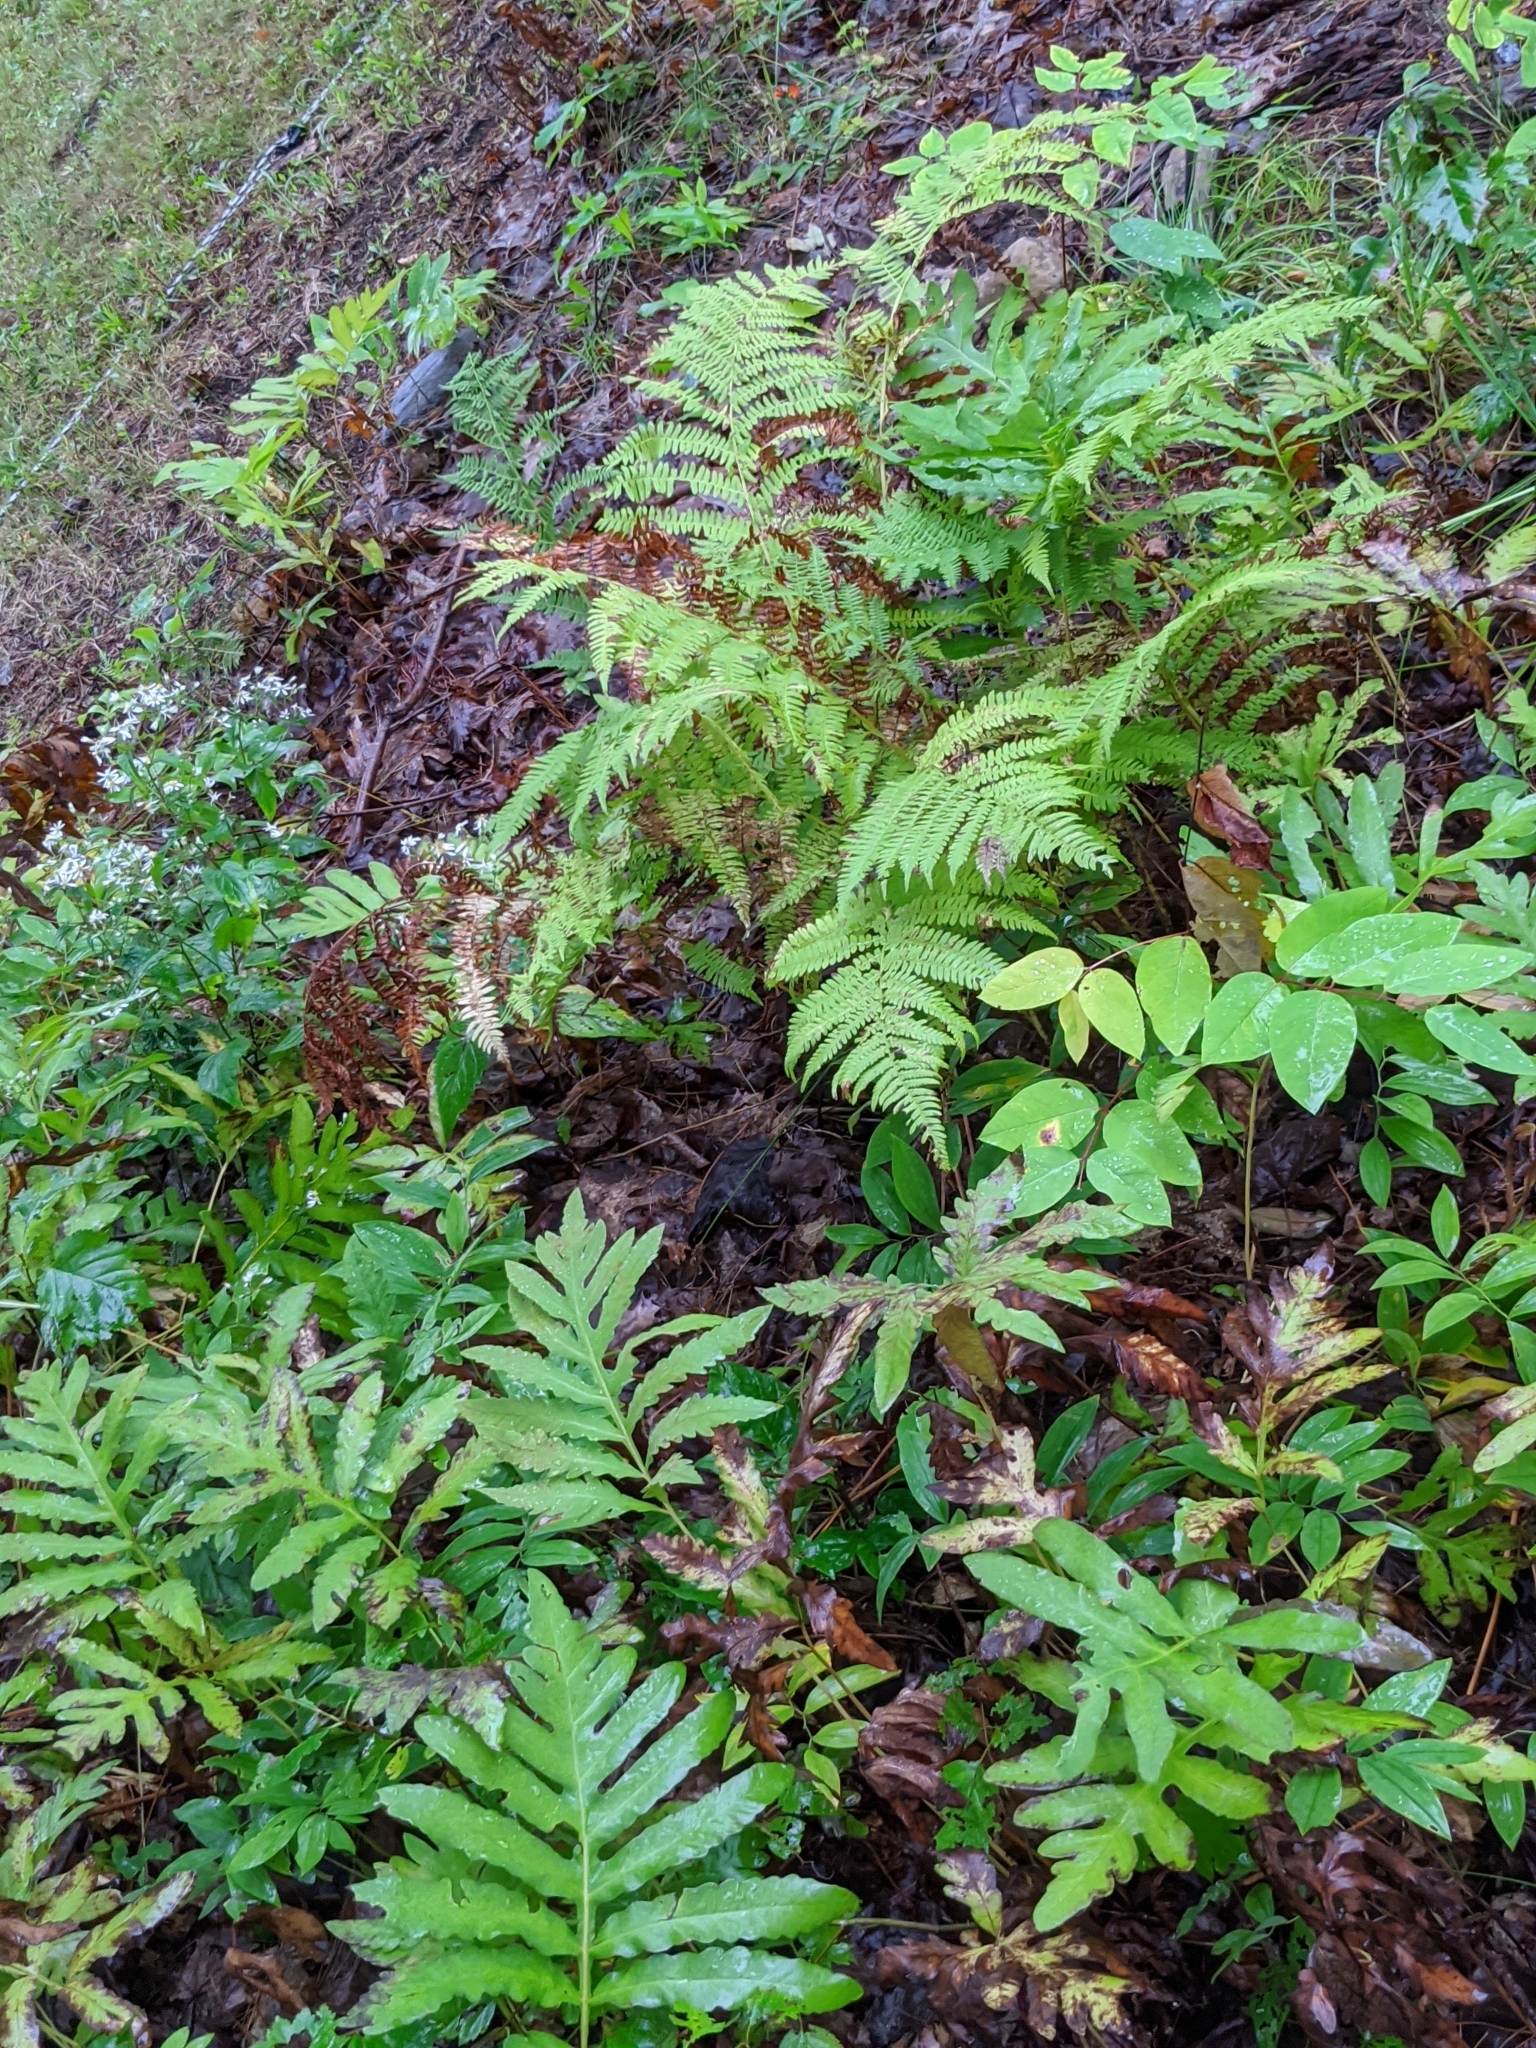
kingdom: Plantae
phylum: Tracheophyta
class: Polypodiopsida
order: Polypodiales
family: Onocleaceae
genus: Onoclea
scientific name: Onoclea sensibilis
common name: Sensitive fern
